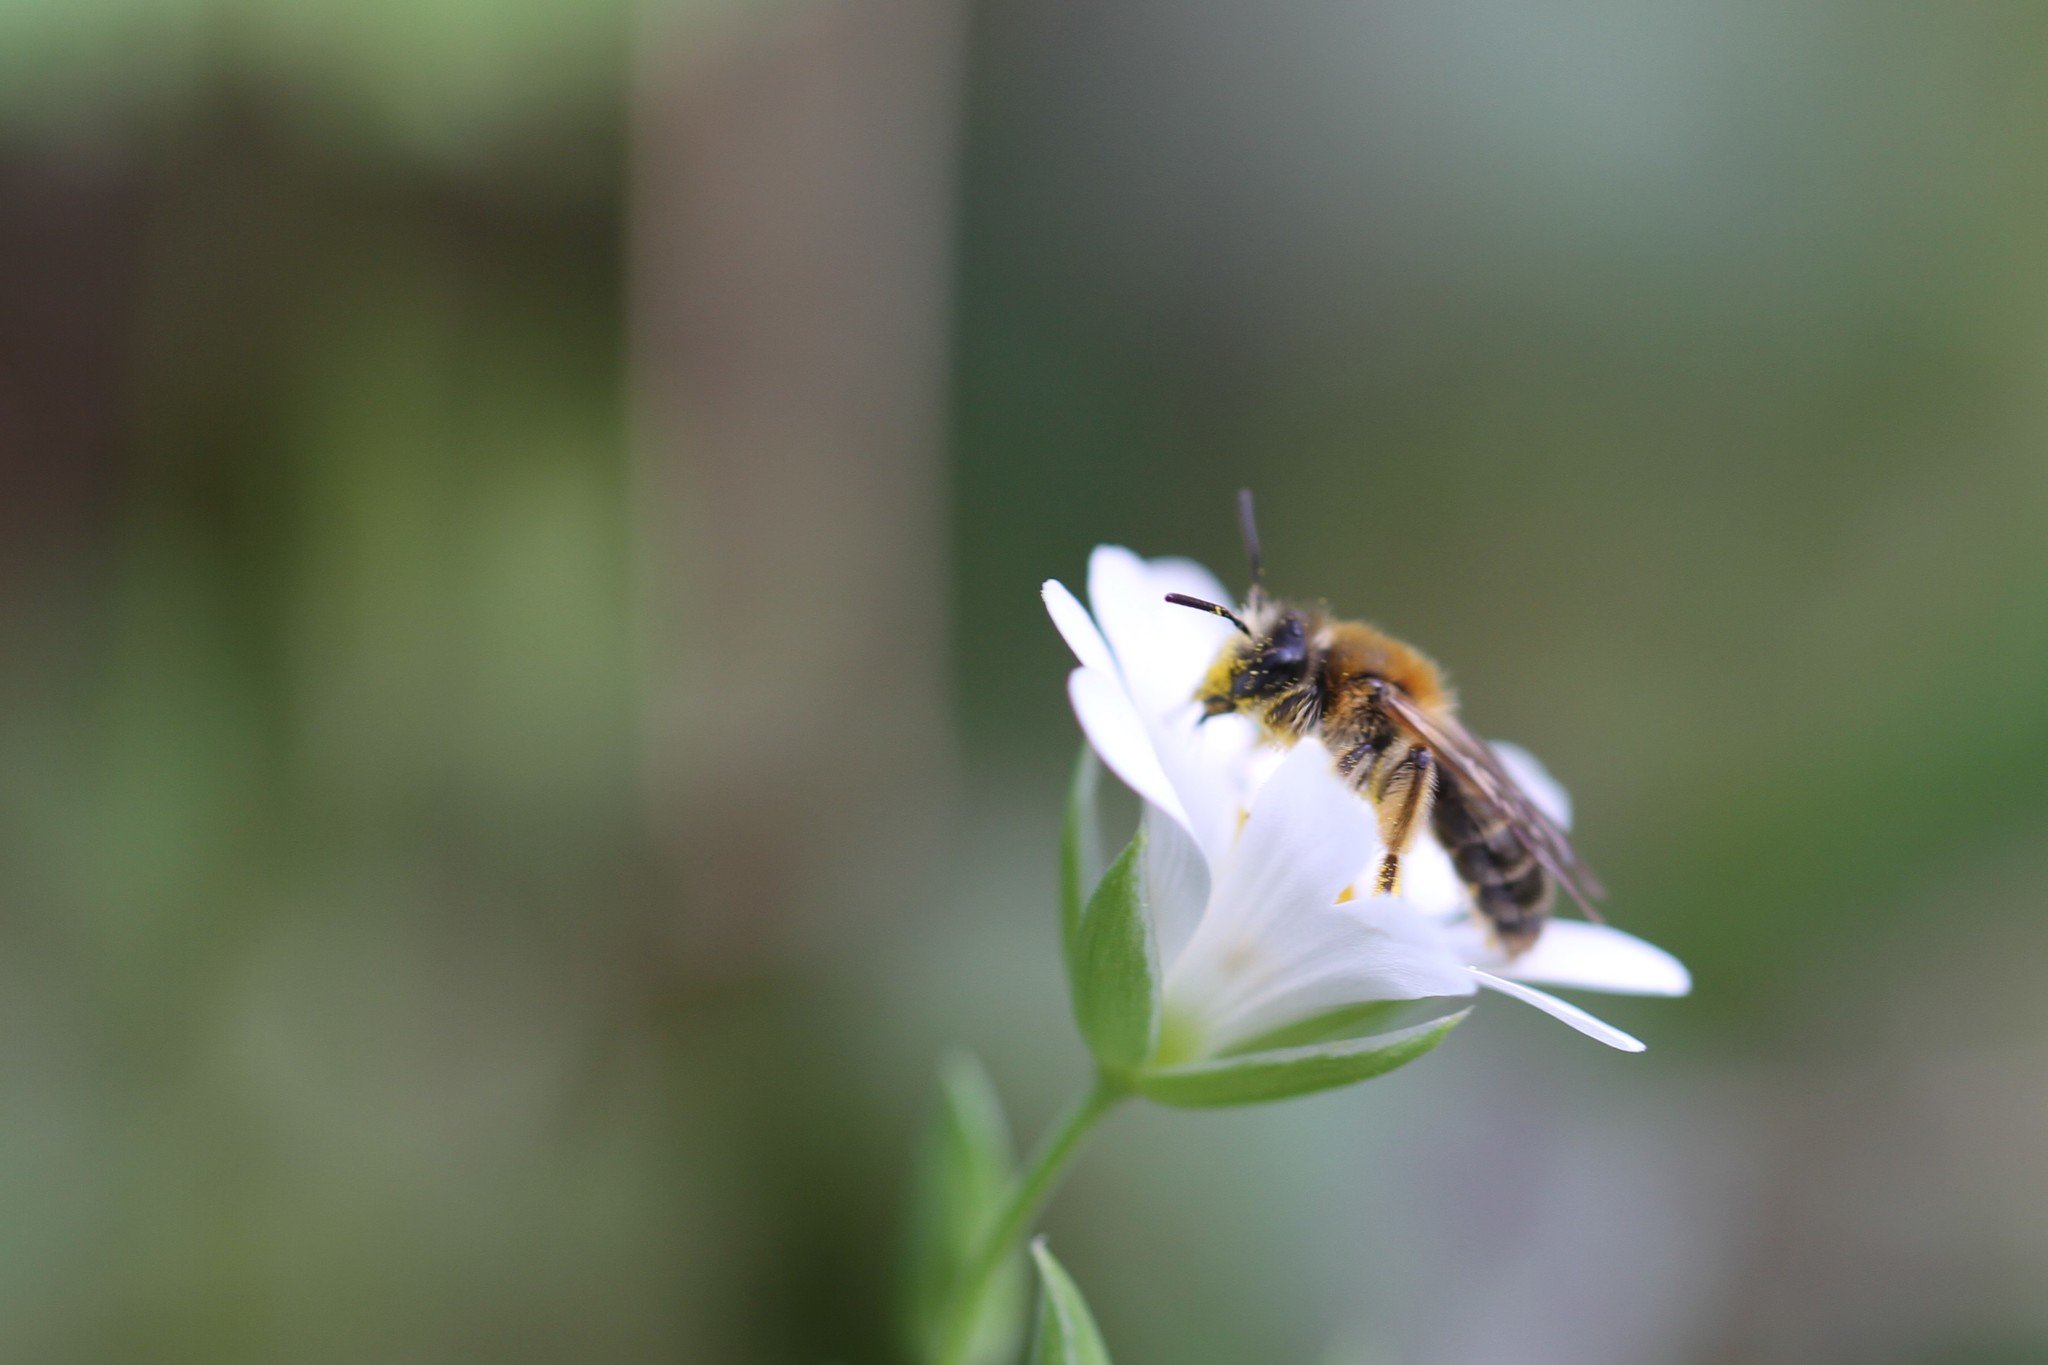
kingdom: Animalia
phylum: Arthropoda
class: Insecta
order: Hymenoptera
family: Andrenidae
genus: Andrena
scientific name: Andrena haemorrhoa
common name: Early mining bee
